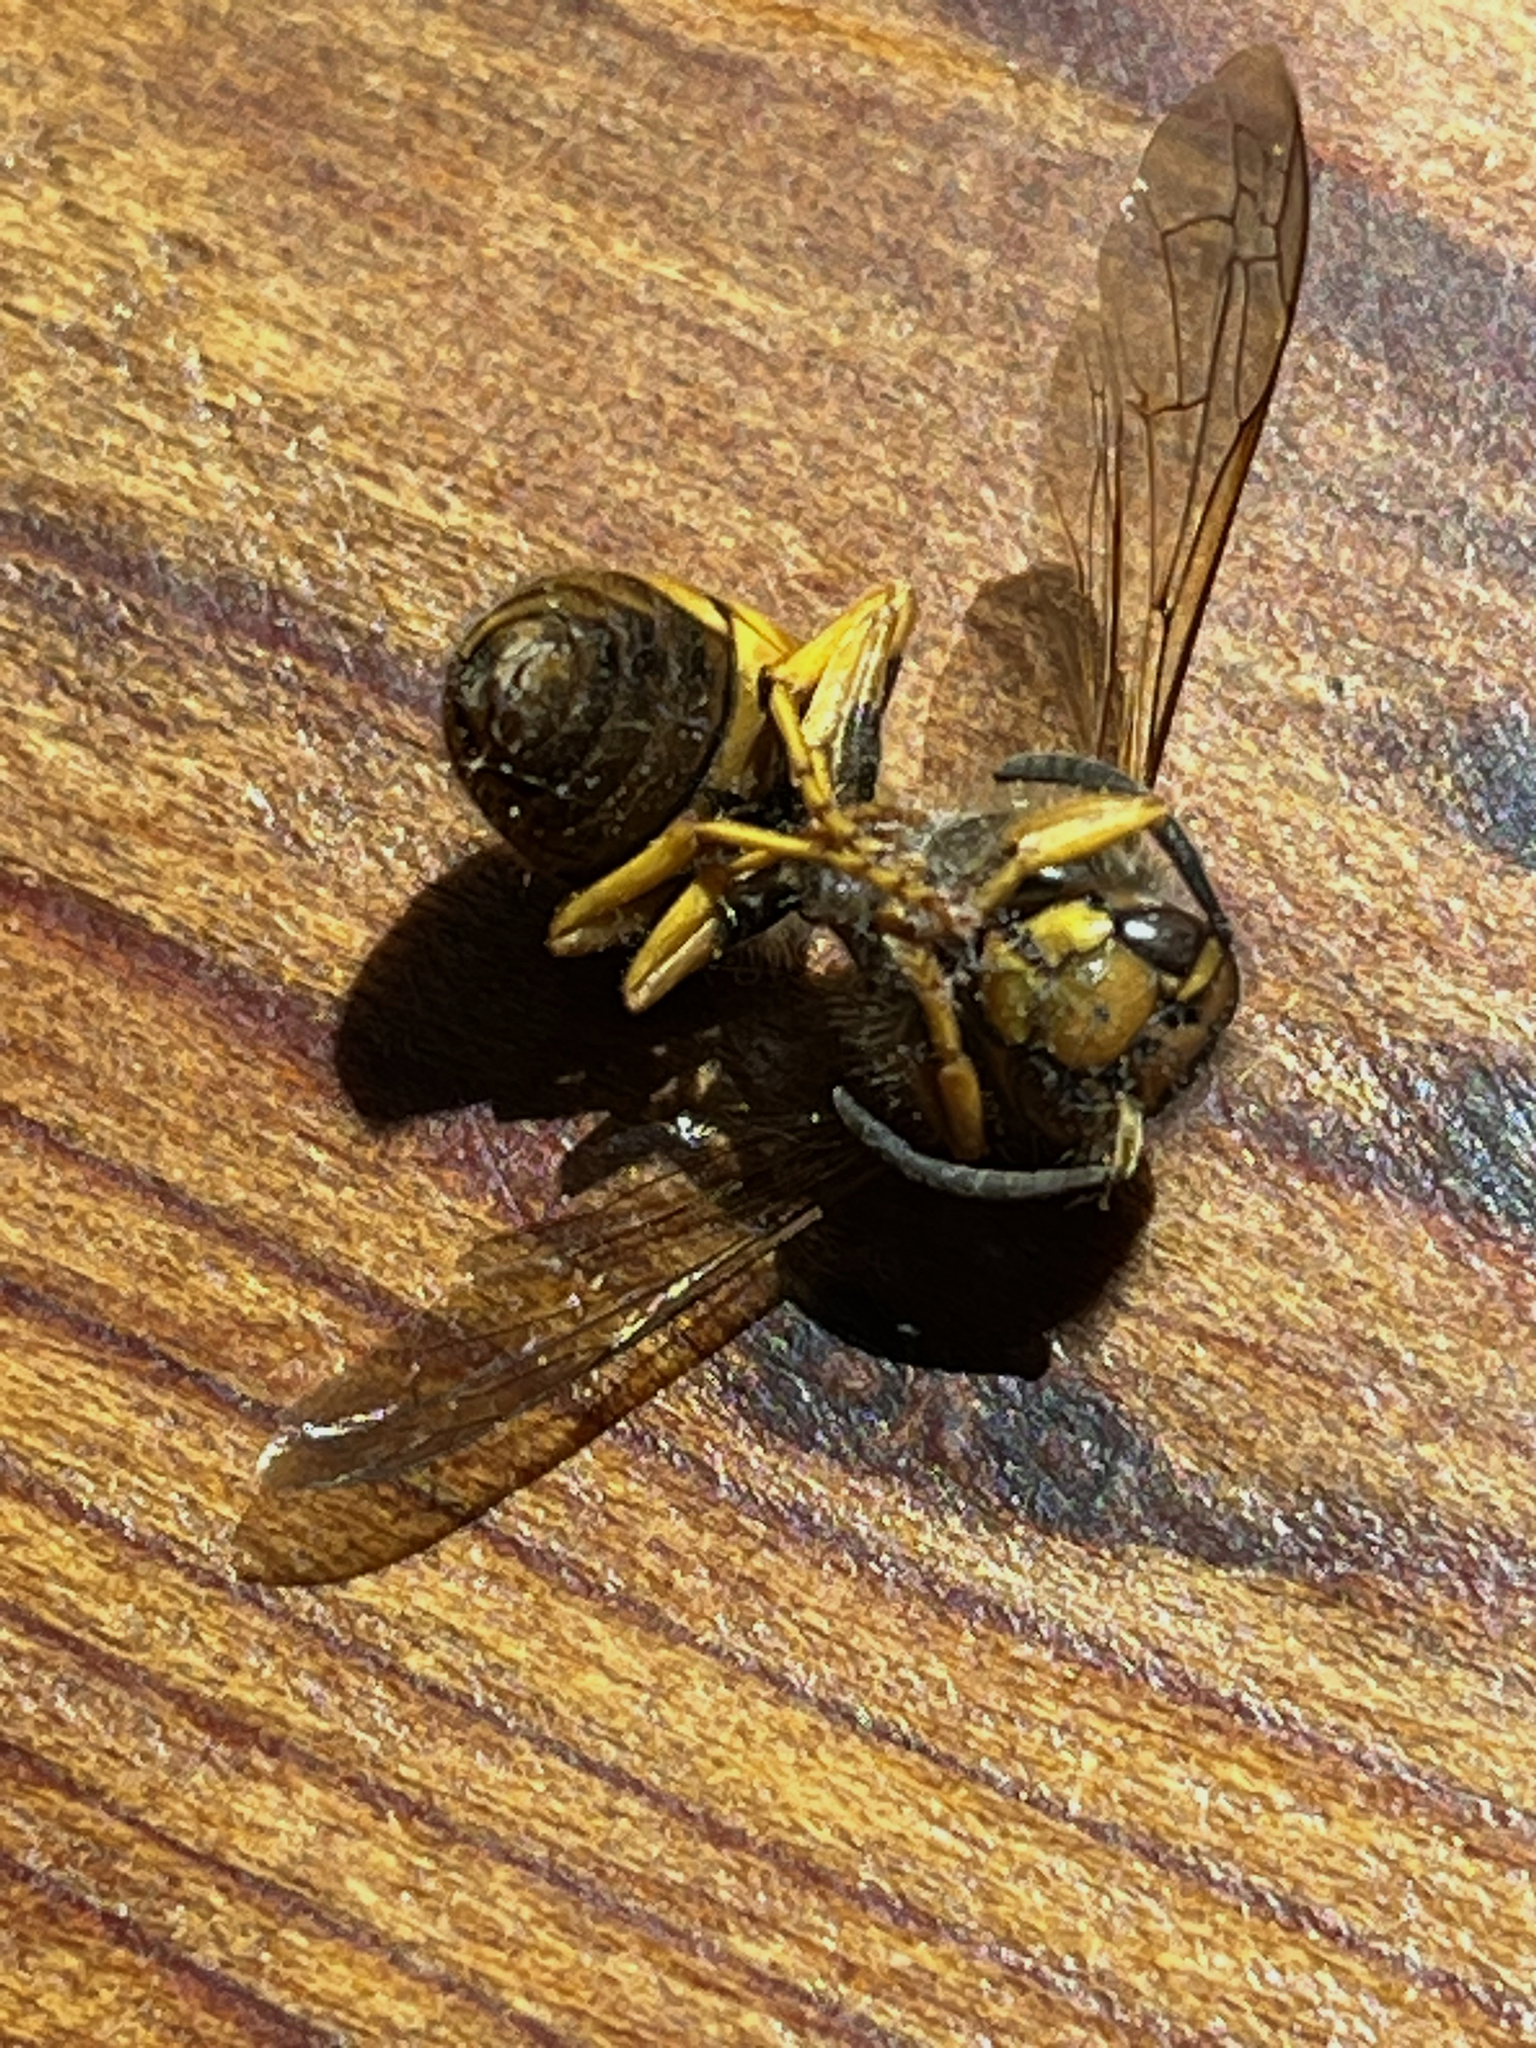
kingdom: Animalia
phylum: Arthropoda
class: Insecta
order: Hymenoptera
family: Vespidae
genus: Vespula
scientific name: Vespula pensylvanica
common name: Western yellowjacket
